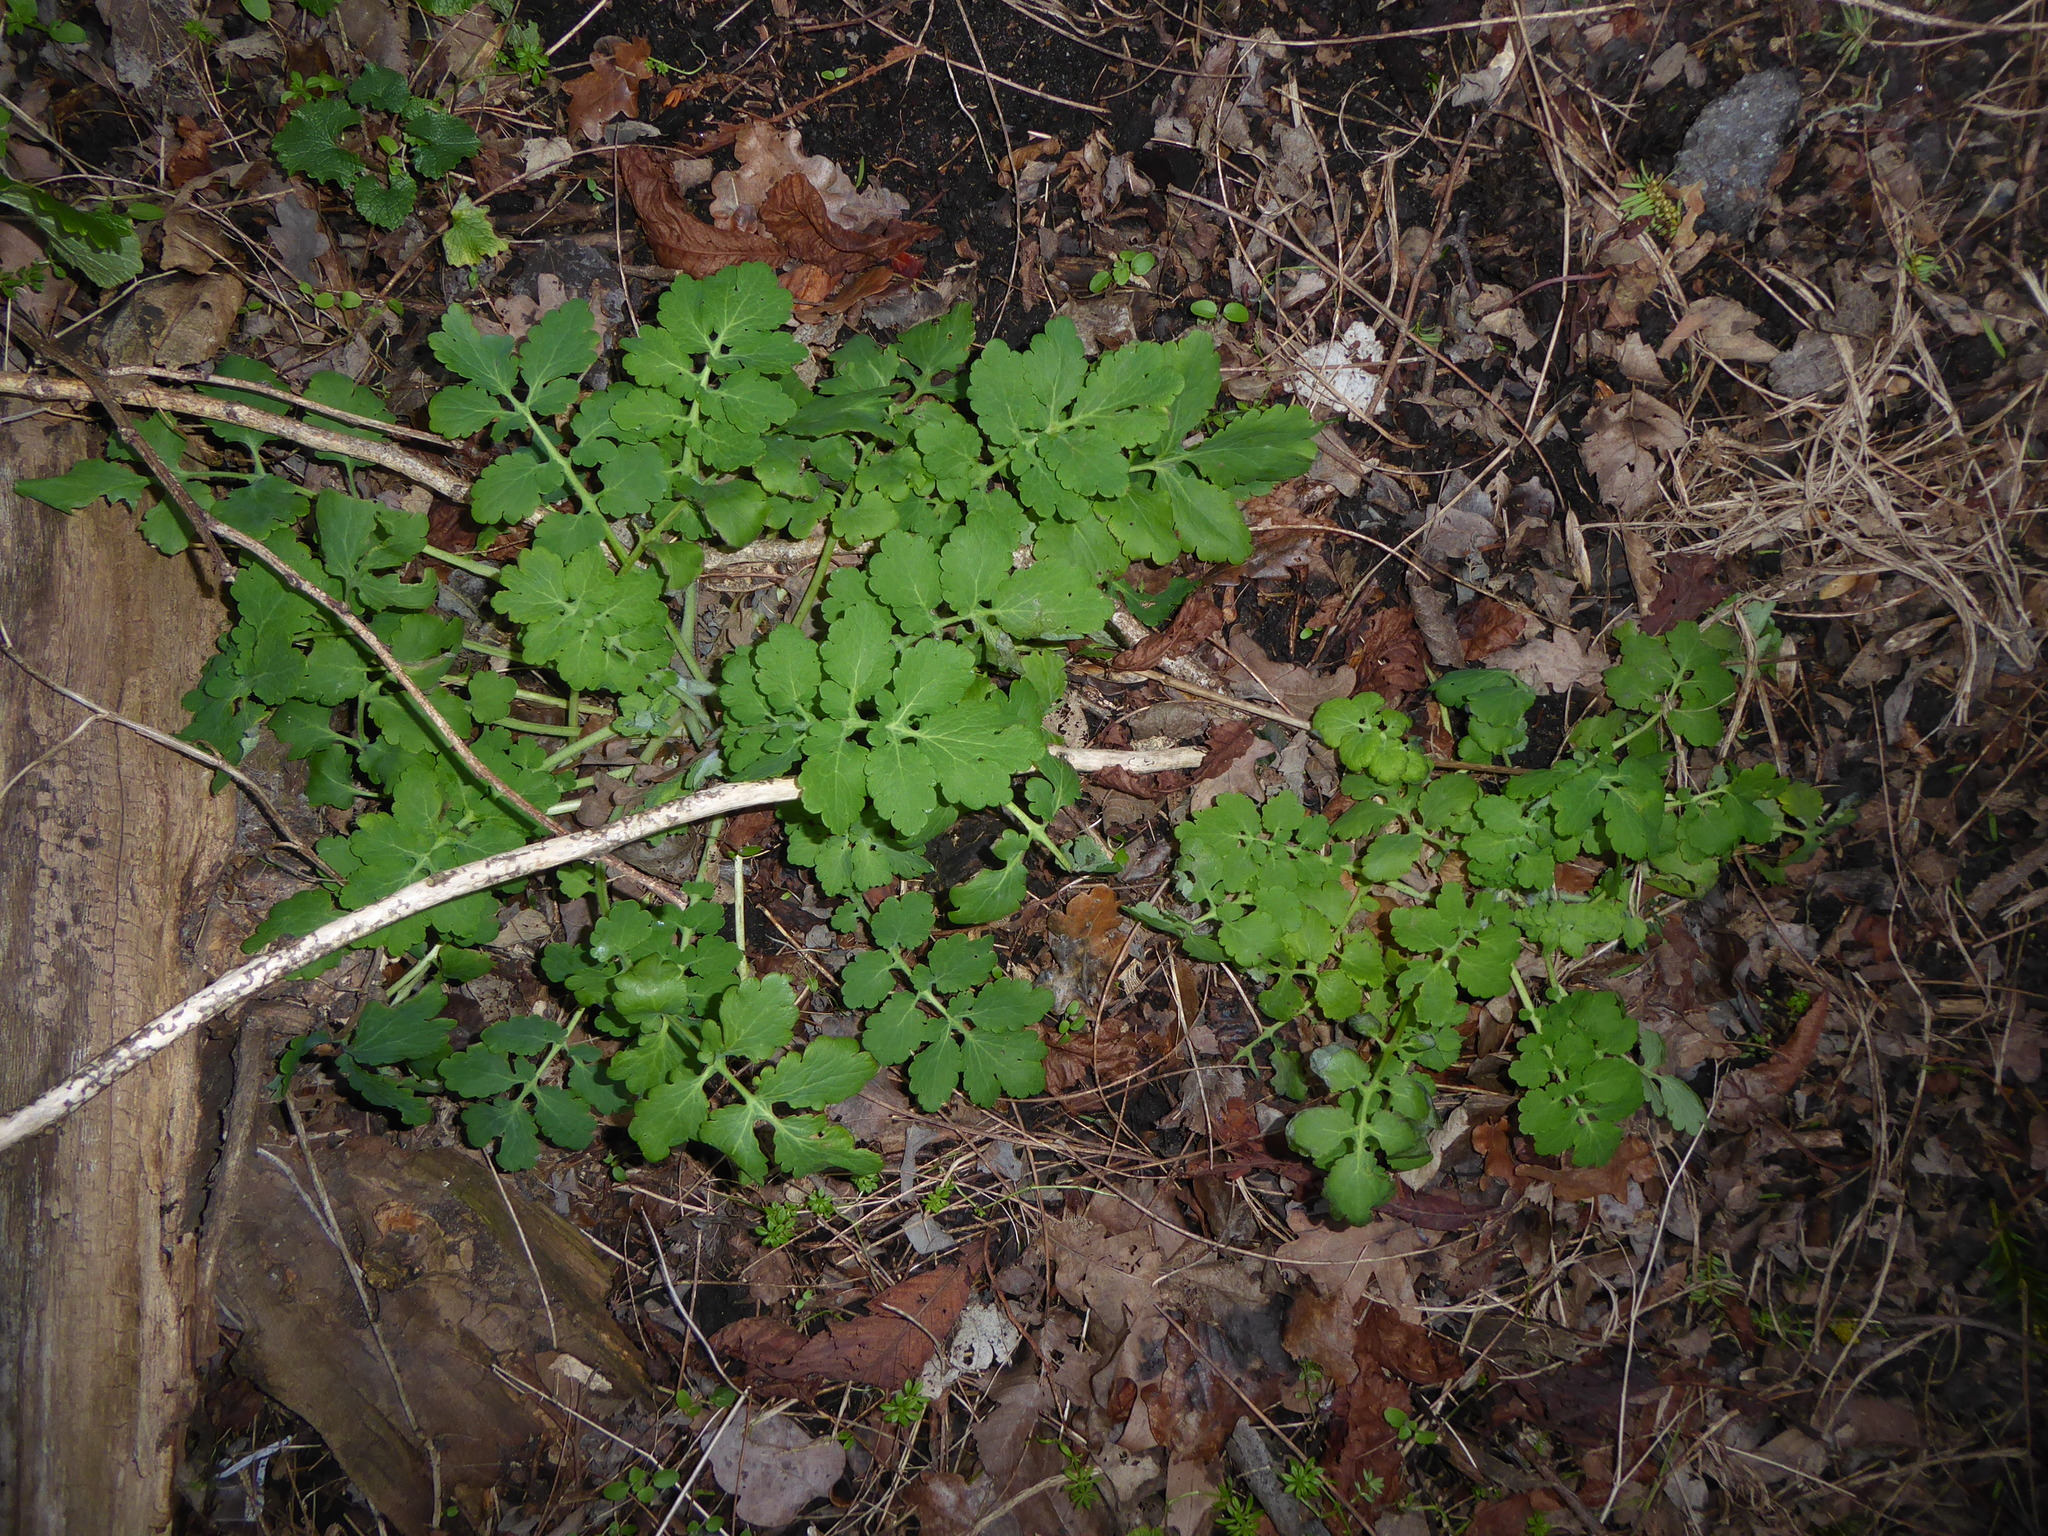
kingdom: Plantae
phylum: Tracheophyta
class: Magnoliopsida
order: Ranunculales
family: Papaveraceae
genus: Chelidonium
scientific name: Chelidonium majus
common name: Greater celandine
